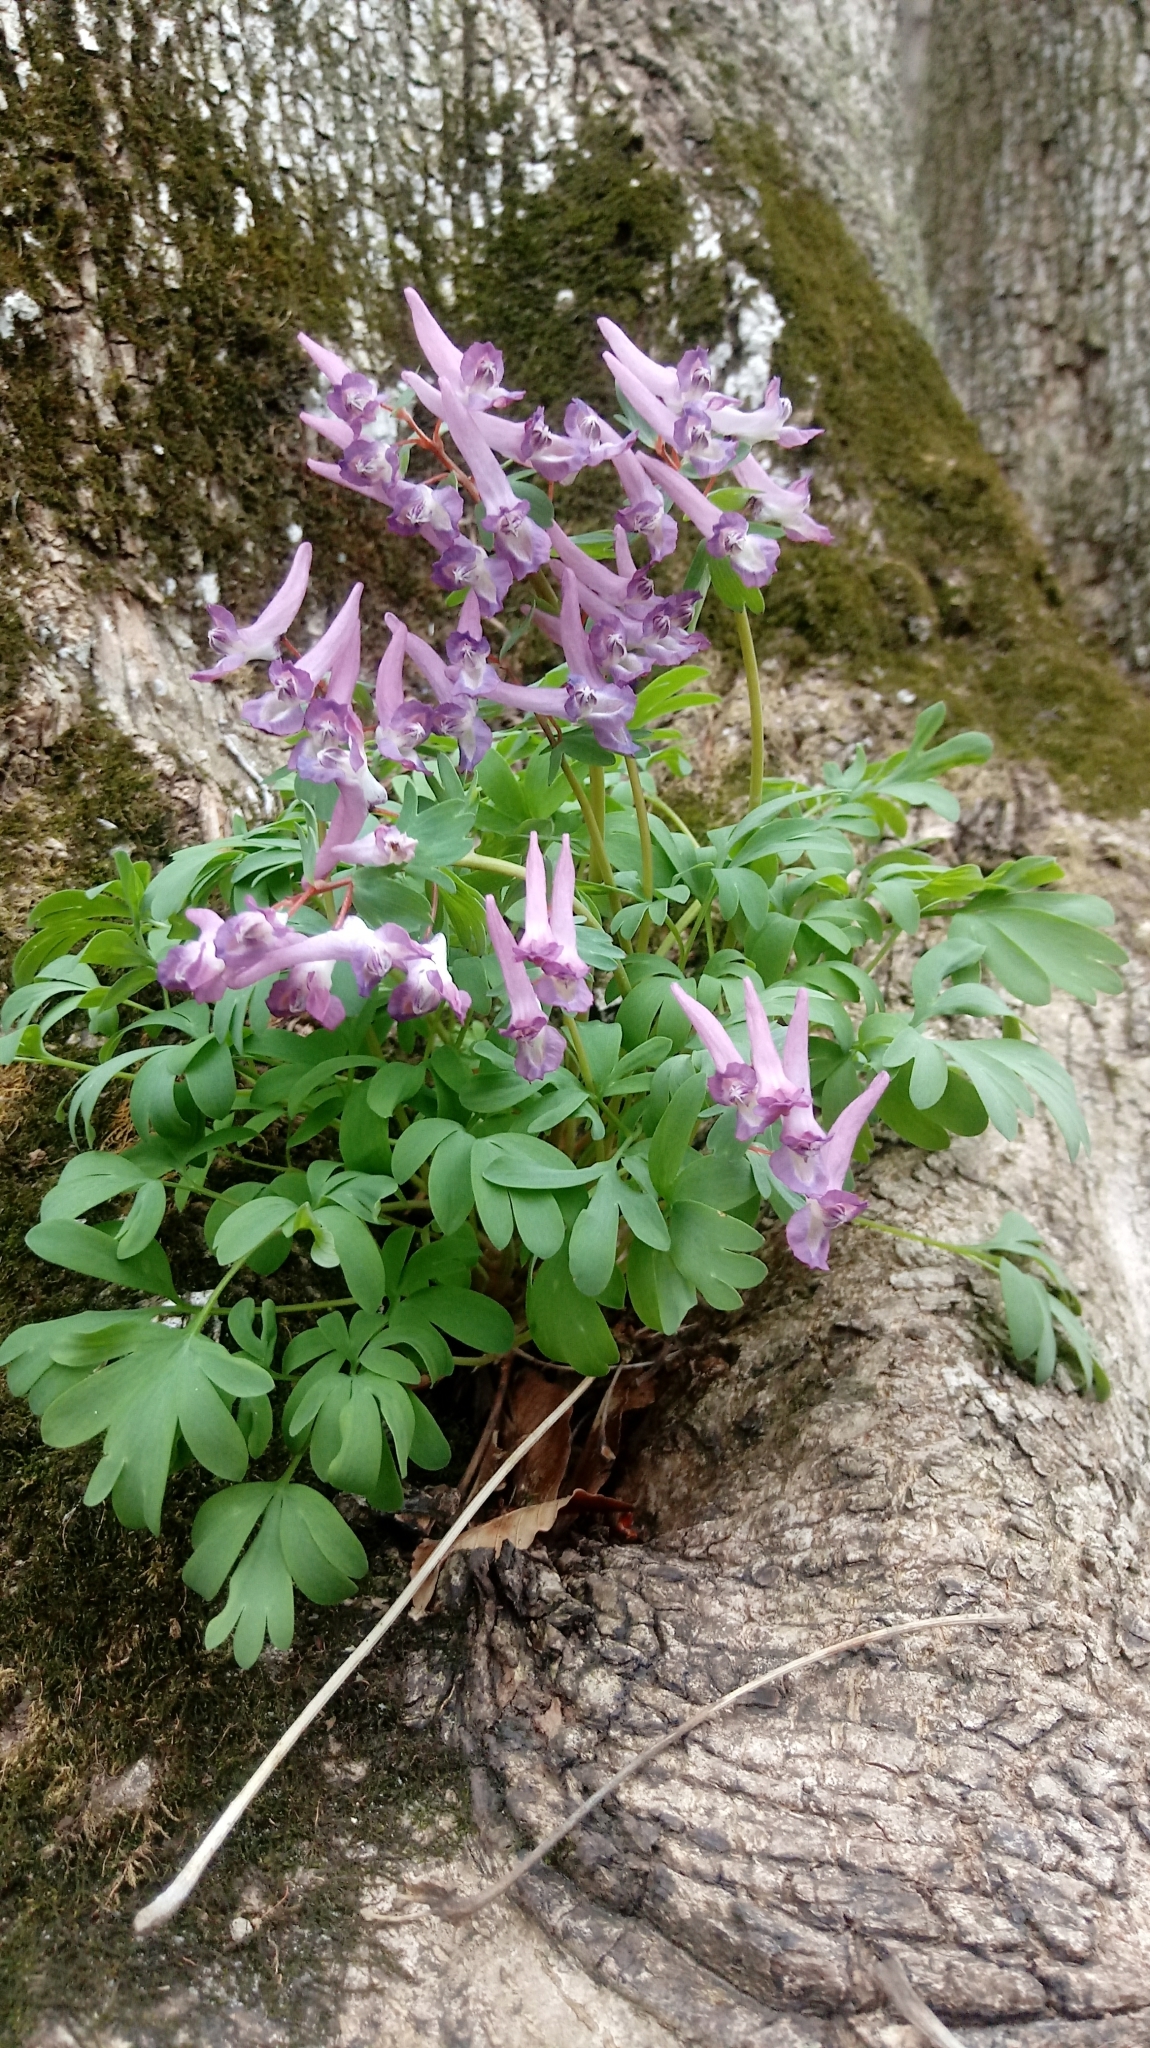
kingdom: Plantae
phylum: Tracheophyta
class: Magnoliopsida
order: Ranunculales
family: Papaveraceae
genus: Corydalis
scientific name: Corydalis solida
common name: Bird-in-a-bush
